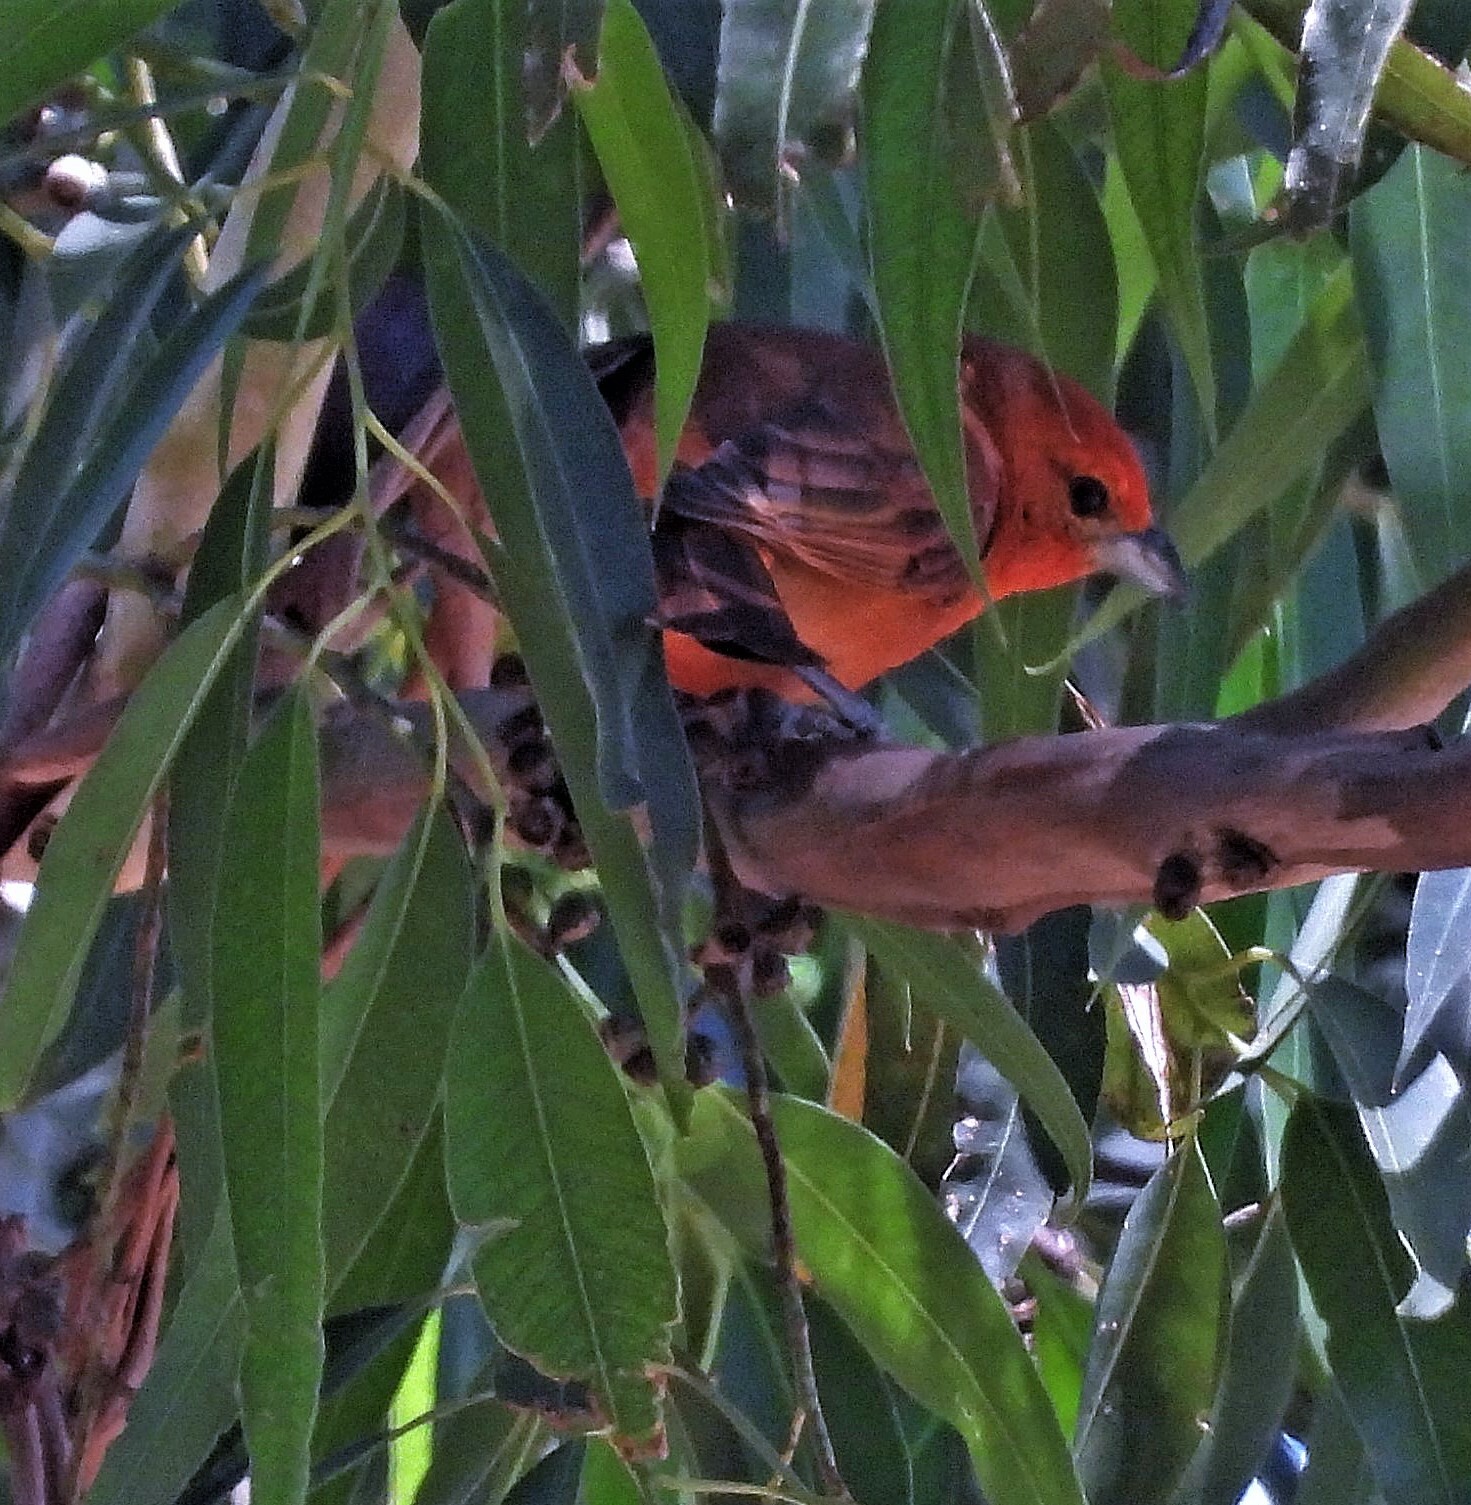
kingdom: Animalia
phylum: Chordata
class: Aves
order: Passeriformes
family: Cardinalidae
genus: Piranga
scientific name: Piranga flava
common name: Red tanager
